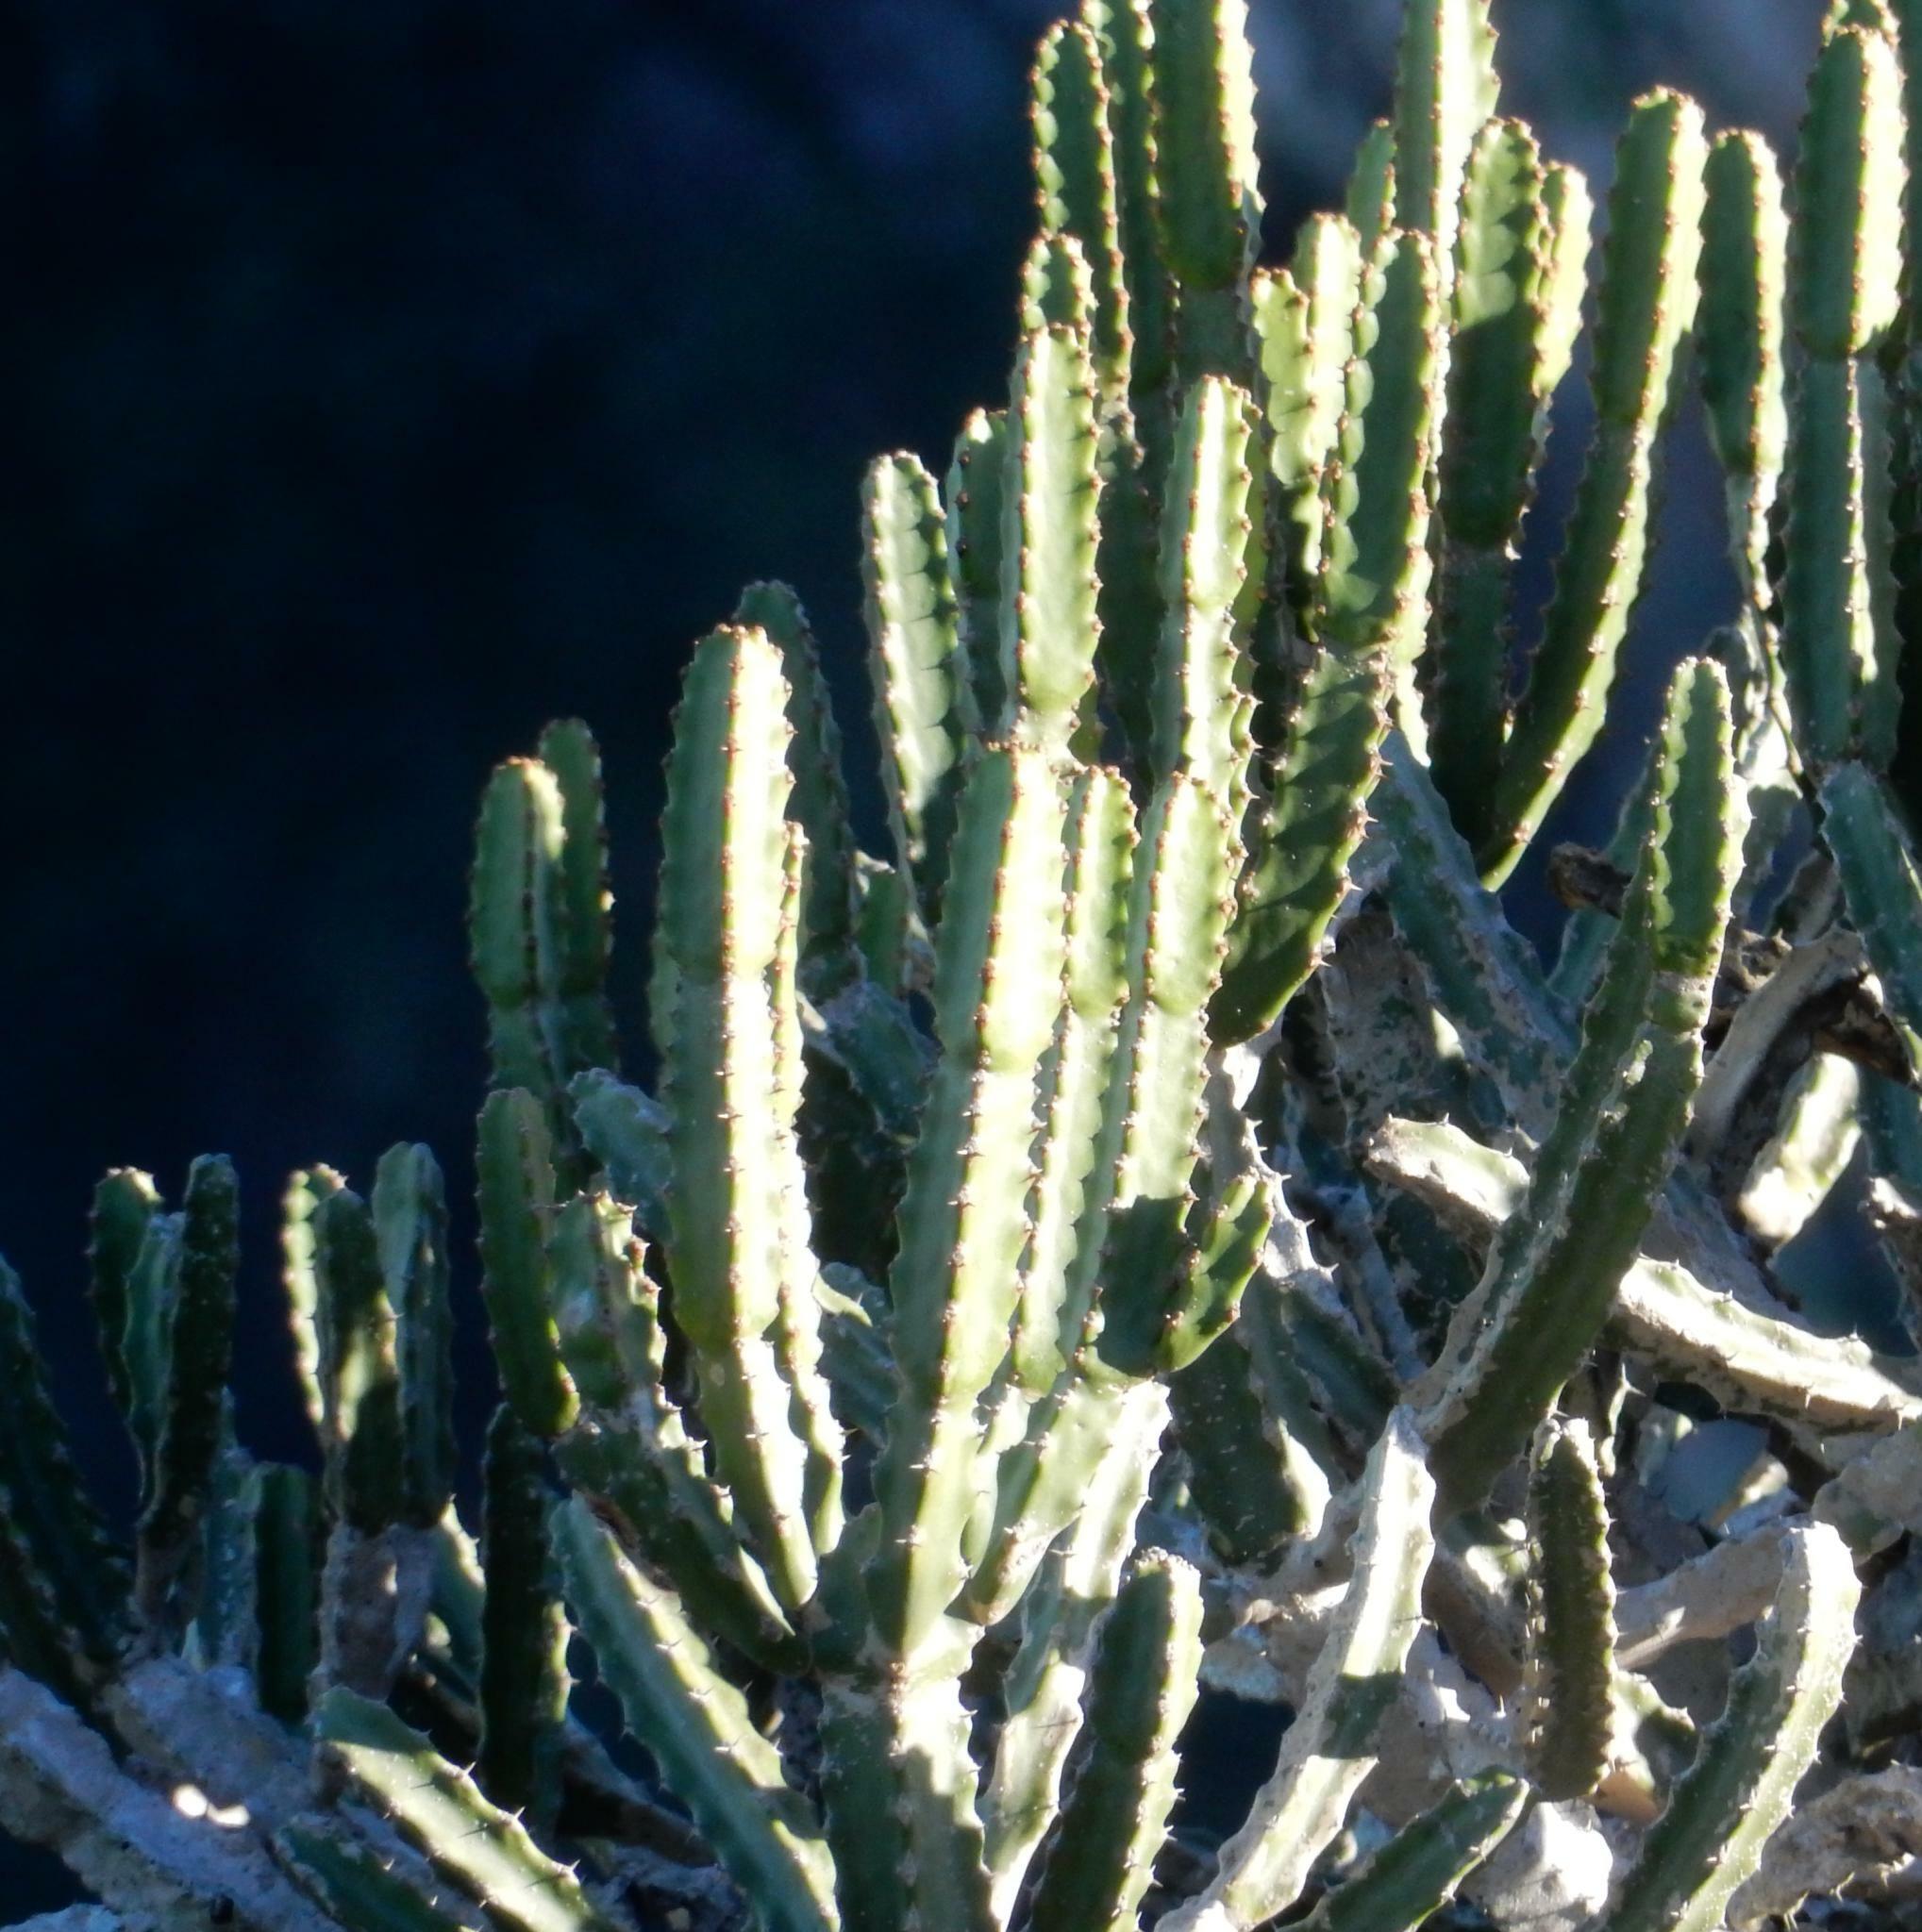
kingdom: Plantae
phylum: Tracheophyta
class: Magnoliopsida
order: Malpighiales
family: Euphorbiaceae
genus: Euphorbia
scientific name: Euphorbia tetragona
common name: Honey euphorbia
